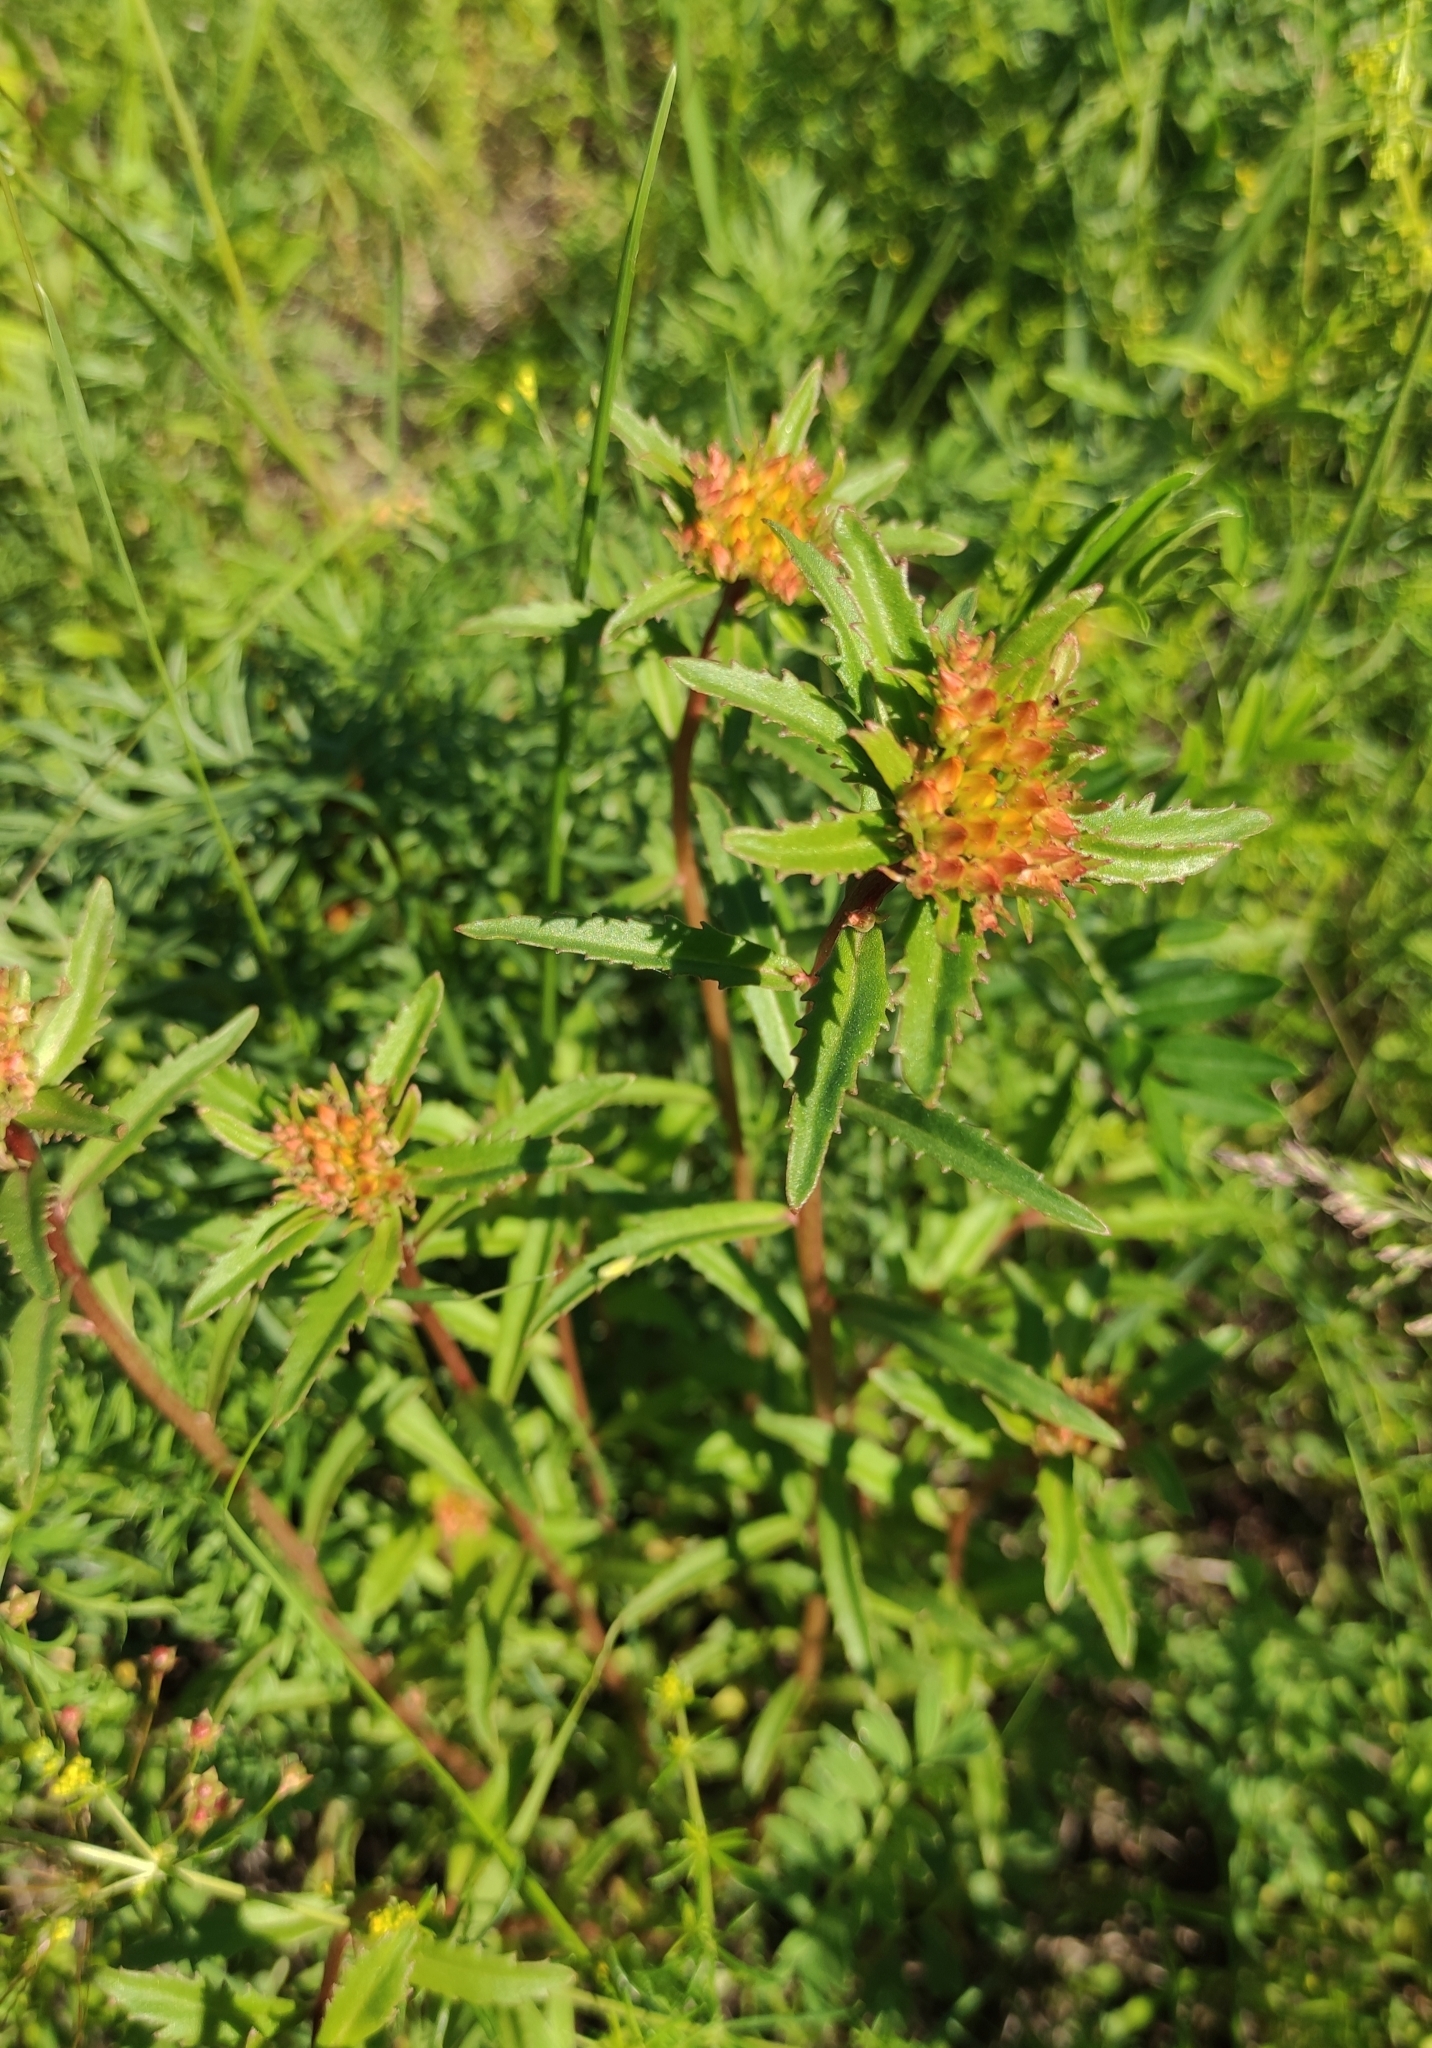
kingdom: Plantae
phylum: Tracheophyta
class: Magnoliopsida
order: Saxifragales
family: Crassulaceae
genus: Phedimus
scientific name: Phedimus aizoon
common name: Orpin aizoon
